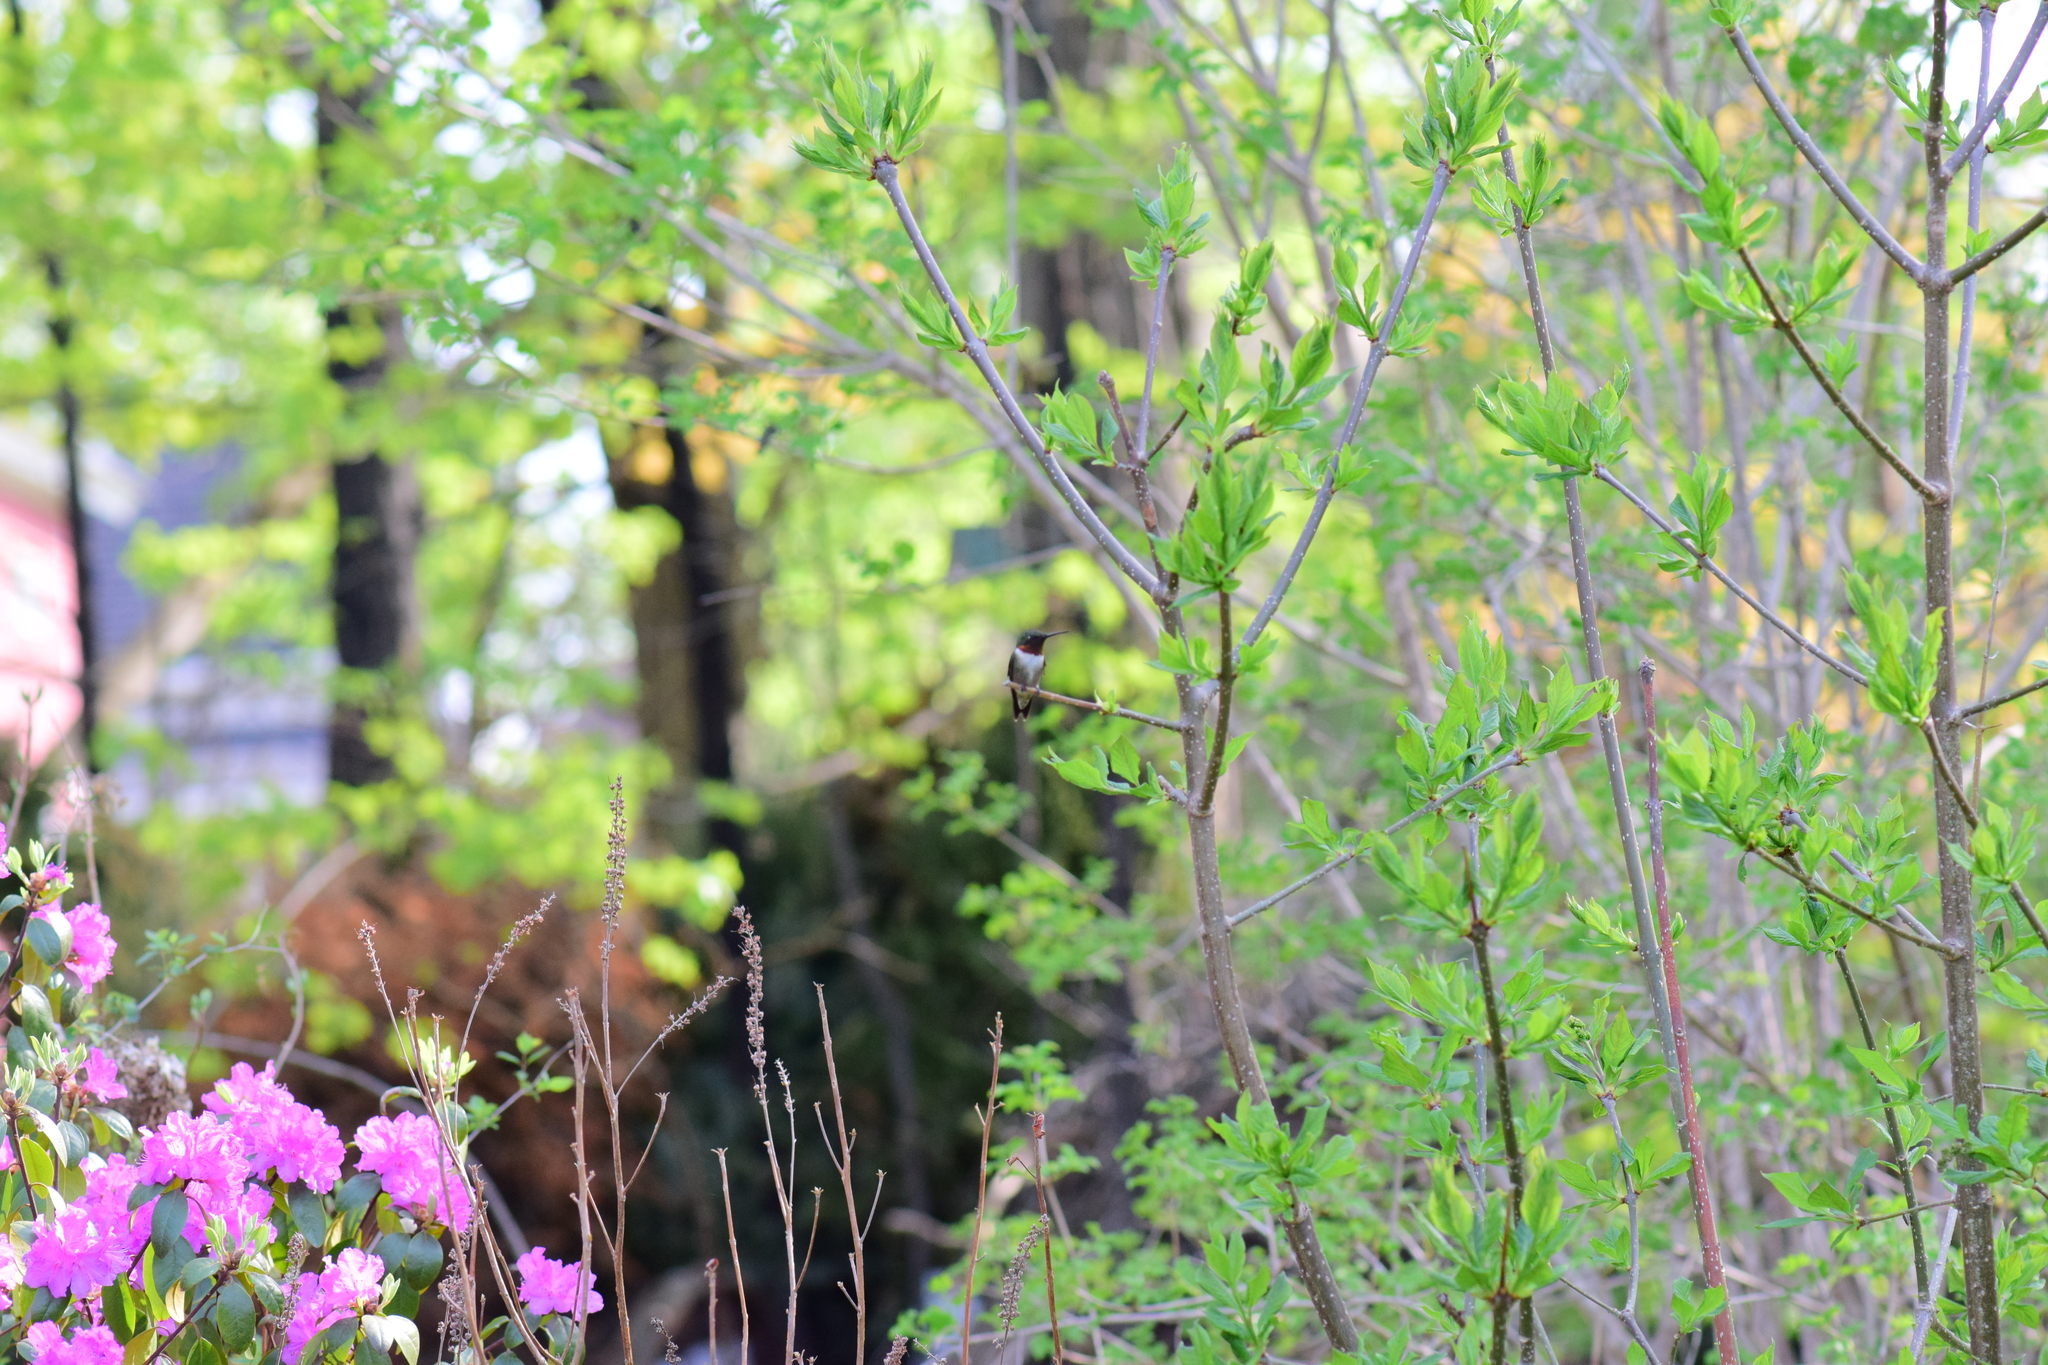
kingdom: Animalia
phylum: Chordata
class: Aves
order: Apodiformes
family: Trochilidae
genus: Archilochus
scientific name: Archilochus colubris
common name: Ruby-throated hummingbird
